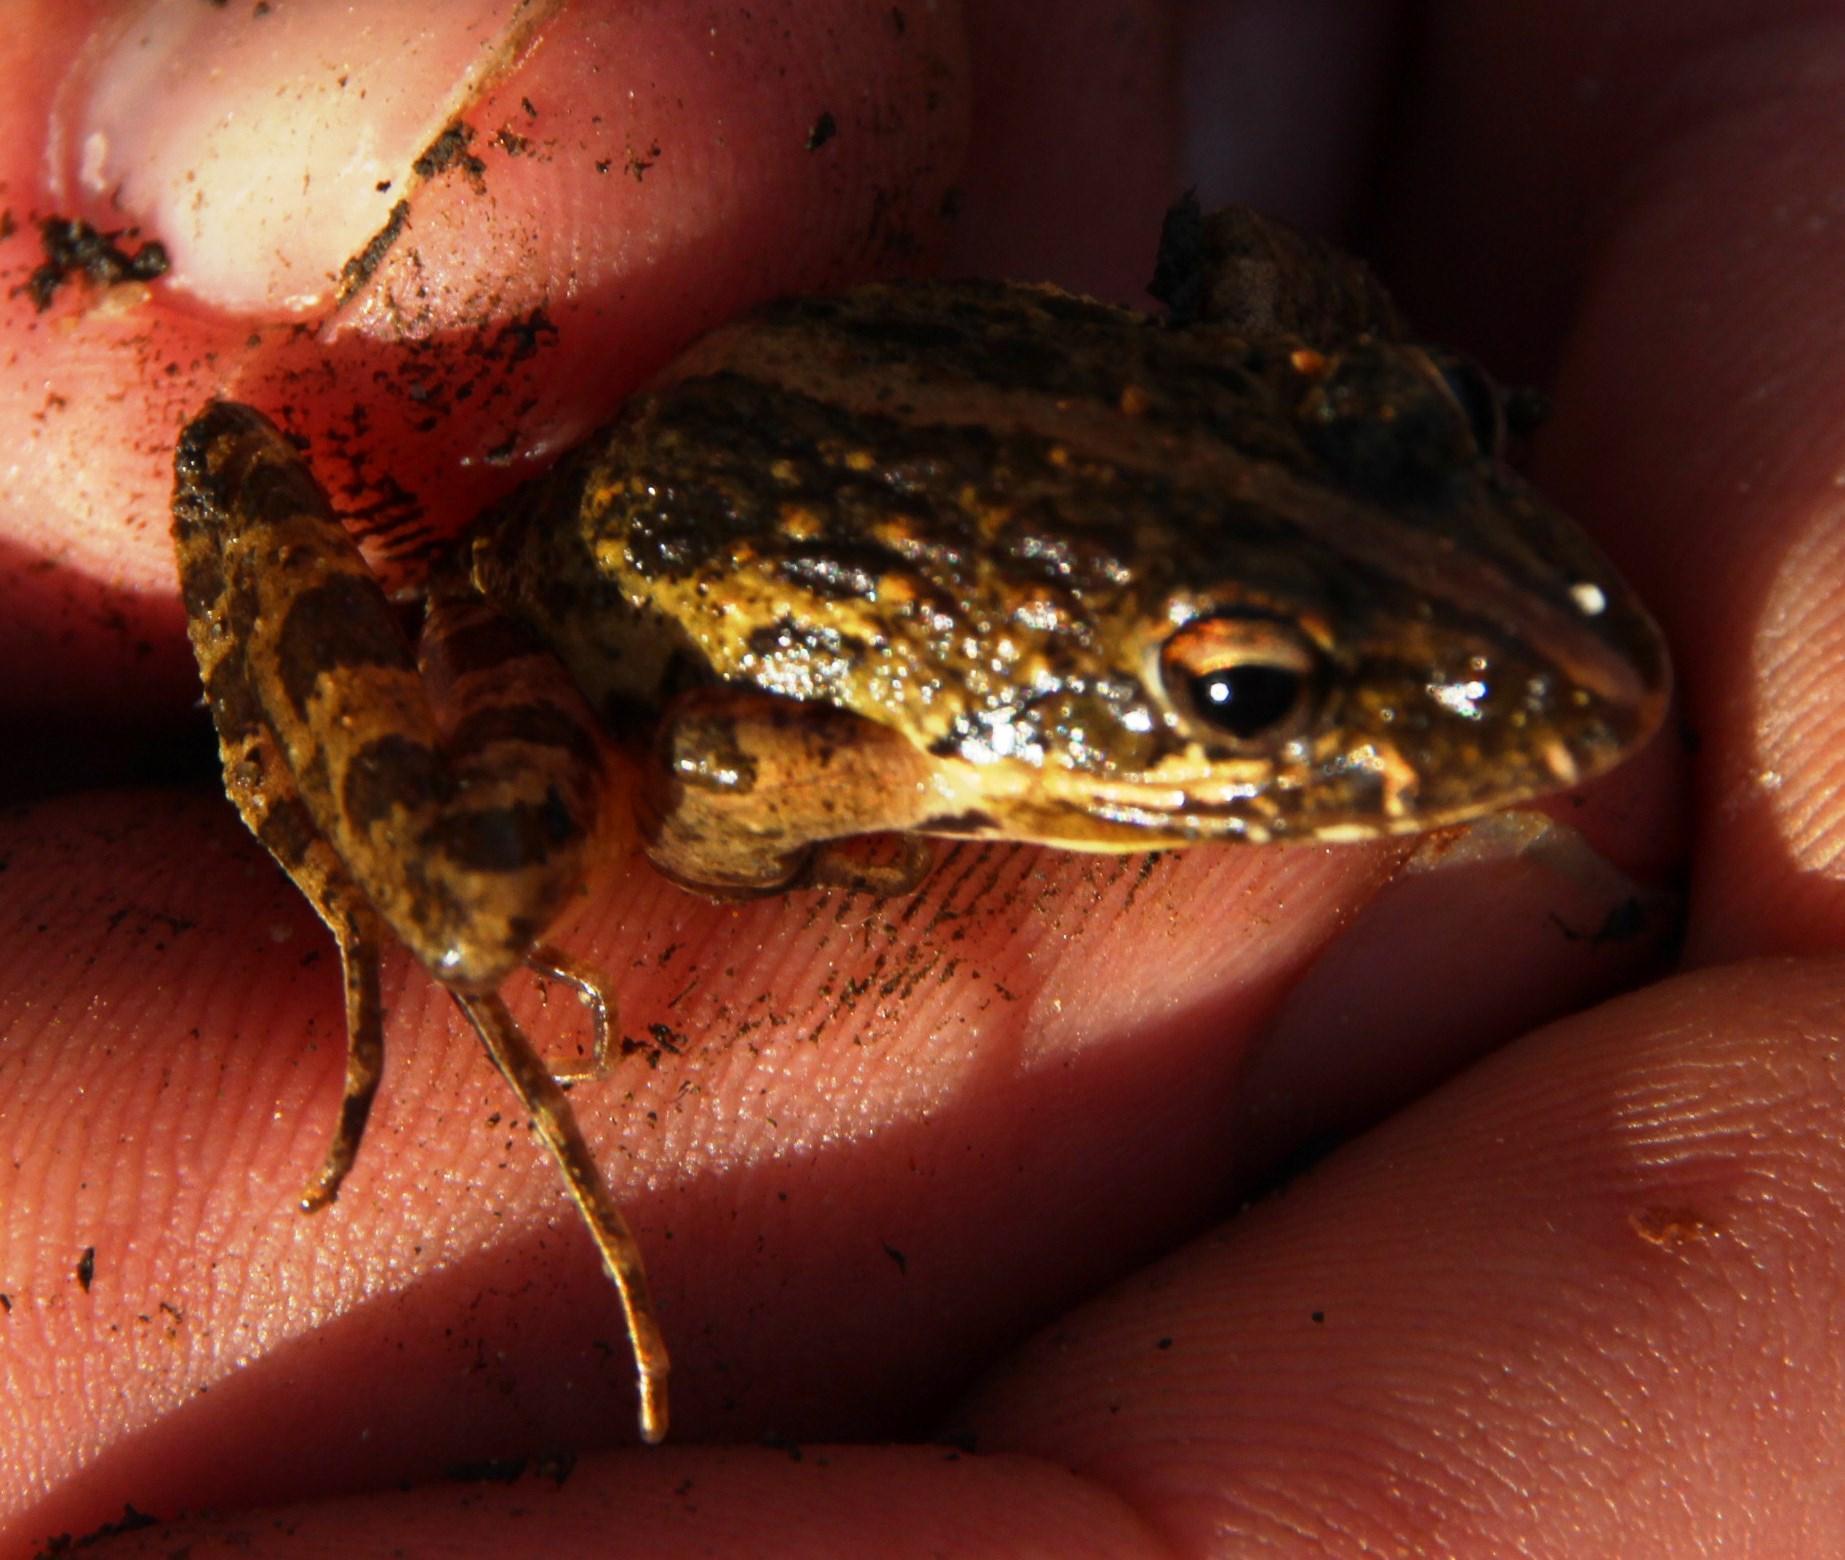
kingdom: Animalia
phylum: Chordata
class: Amphibia
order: Anura
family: Pyxicephalidae
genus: Strongylopus
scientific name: Strongylopus grayii
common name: Gray's stream frog
